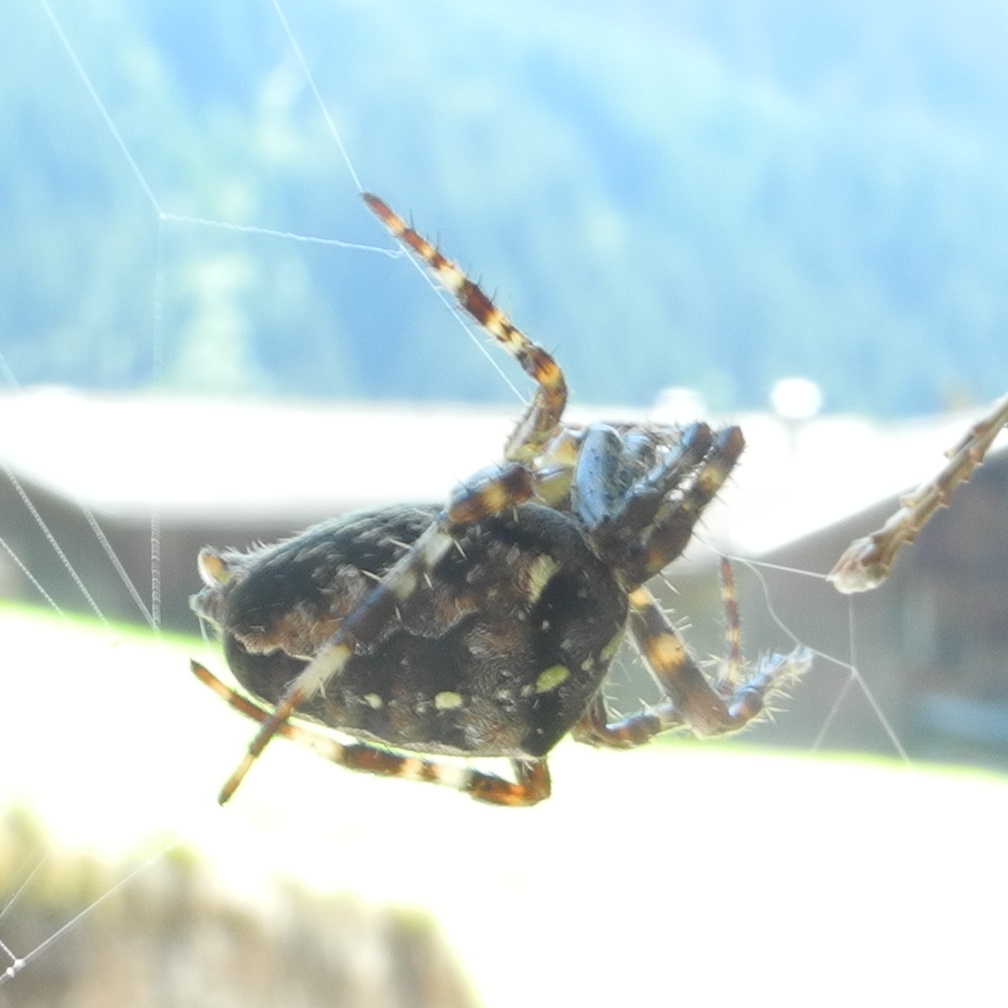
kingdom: Animalia
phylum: Arthropoda
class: Arachnida
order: Araneae
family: Araneidae
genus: Araneus
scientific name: Araneus diadematus
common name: Cross orbweaver
